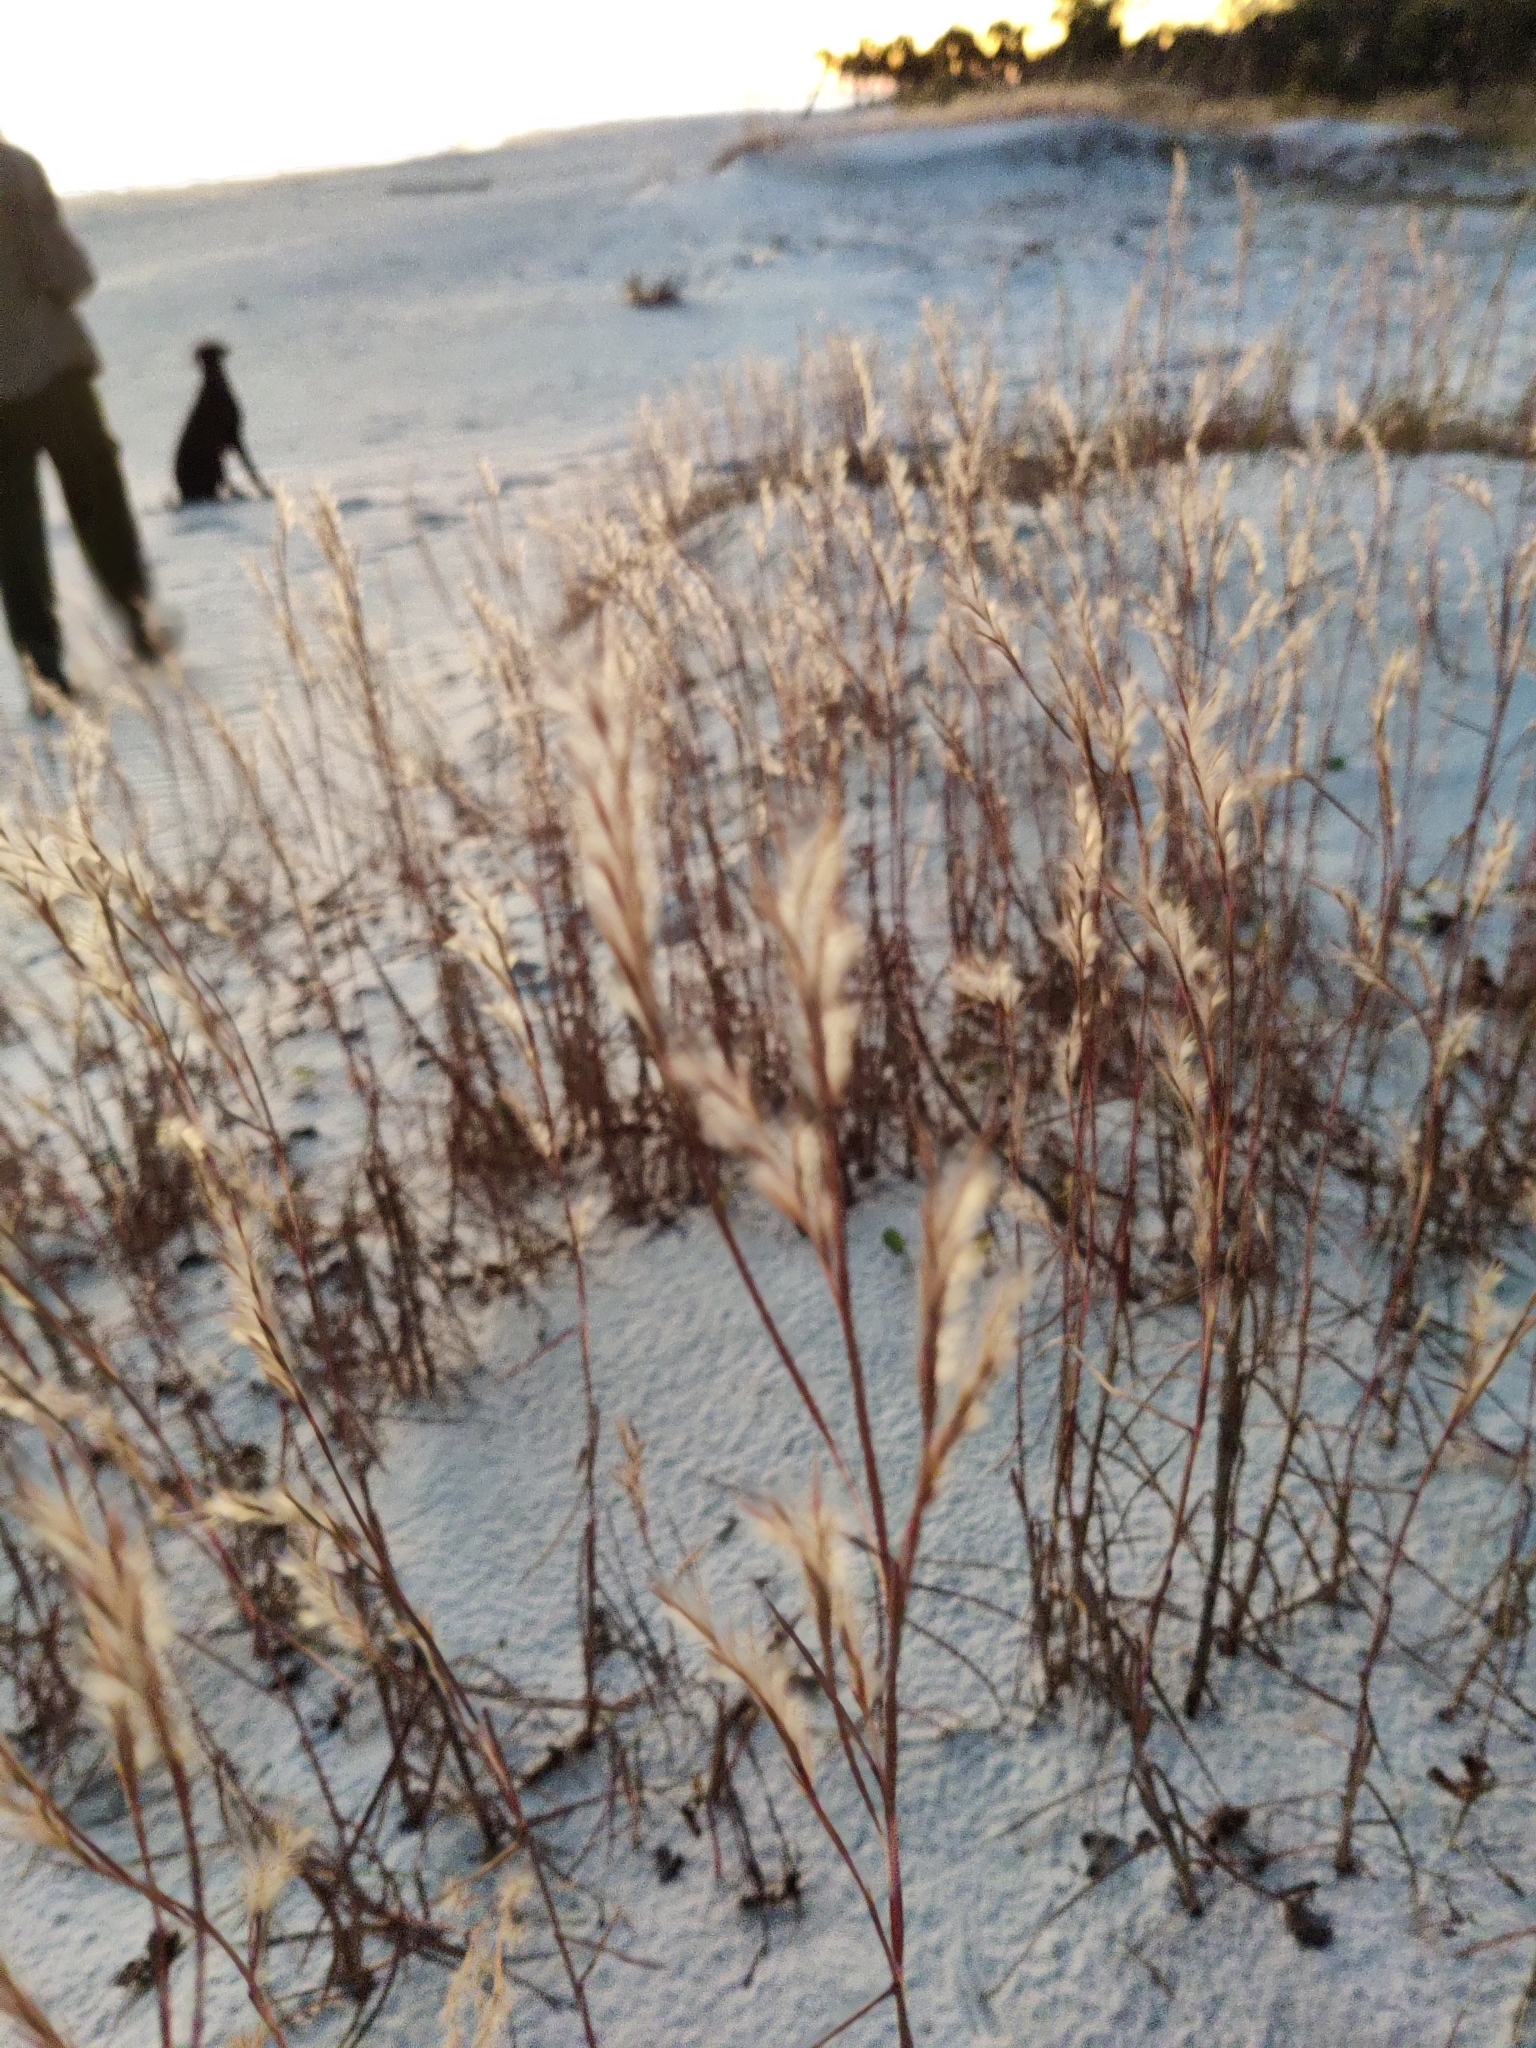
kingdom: Plantae
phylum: Tracheophyta
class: Liliopsida
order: Poales
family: Poaceae
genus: Schizachyrium
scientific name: Schizachyrium maritimum
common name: Gulf bluestem
